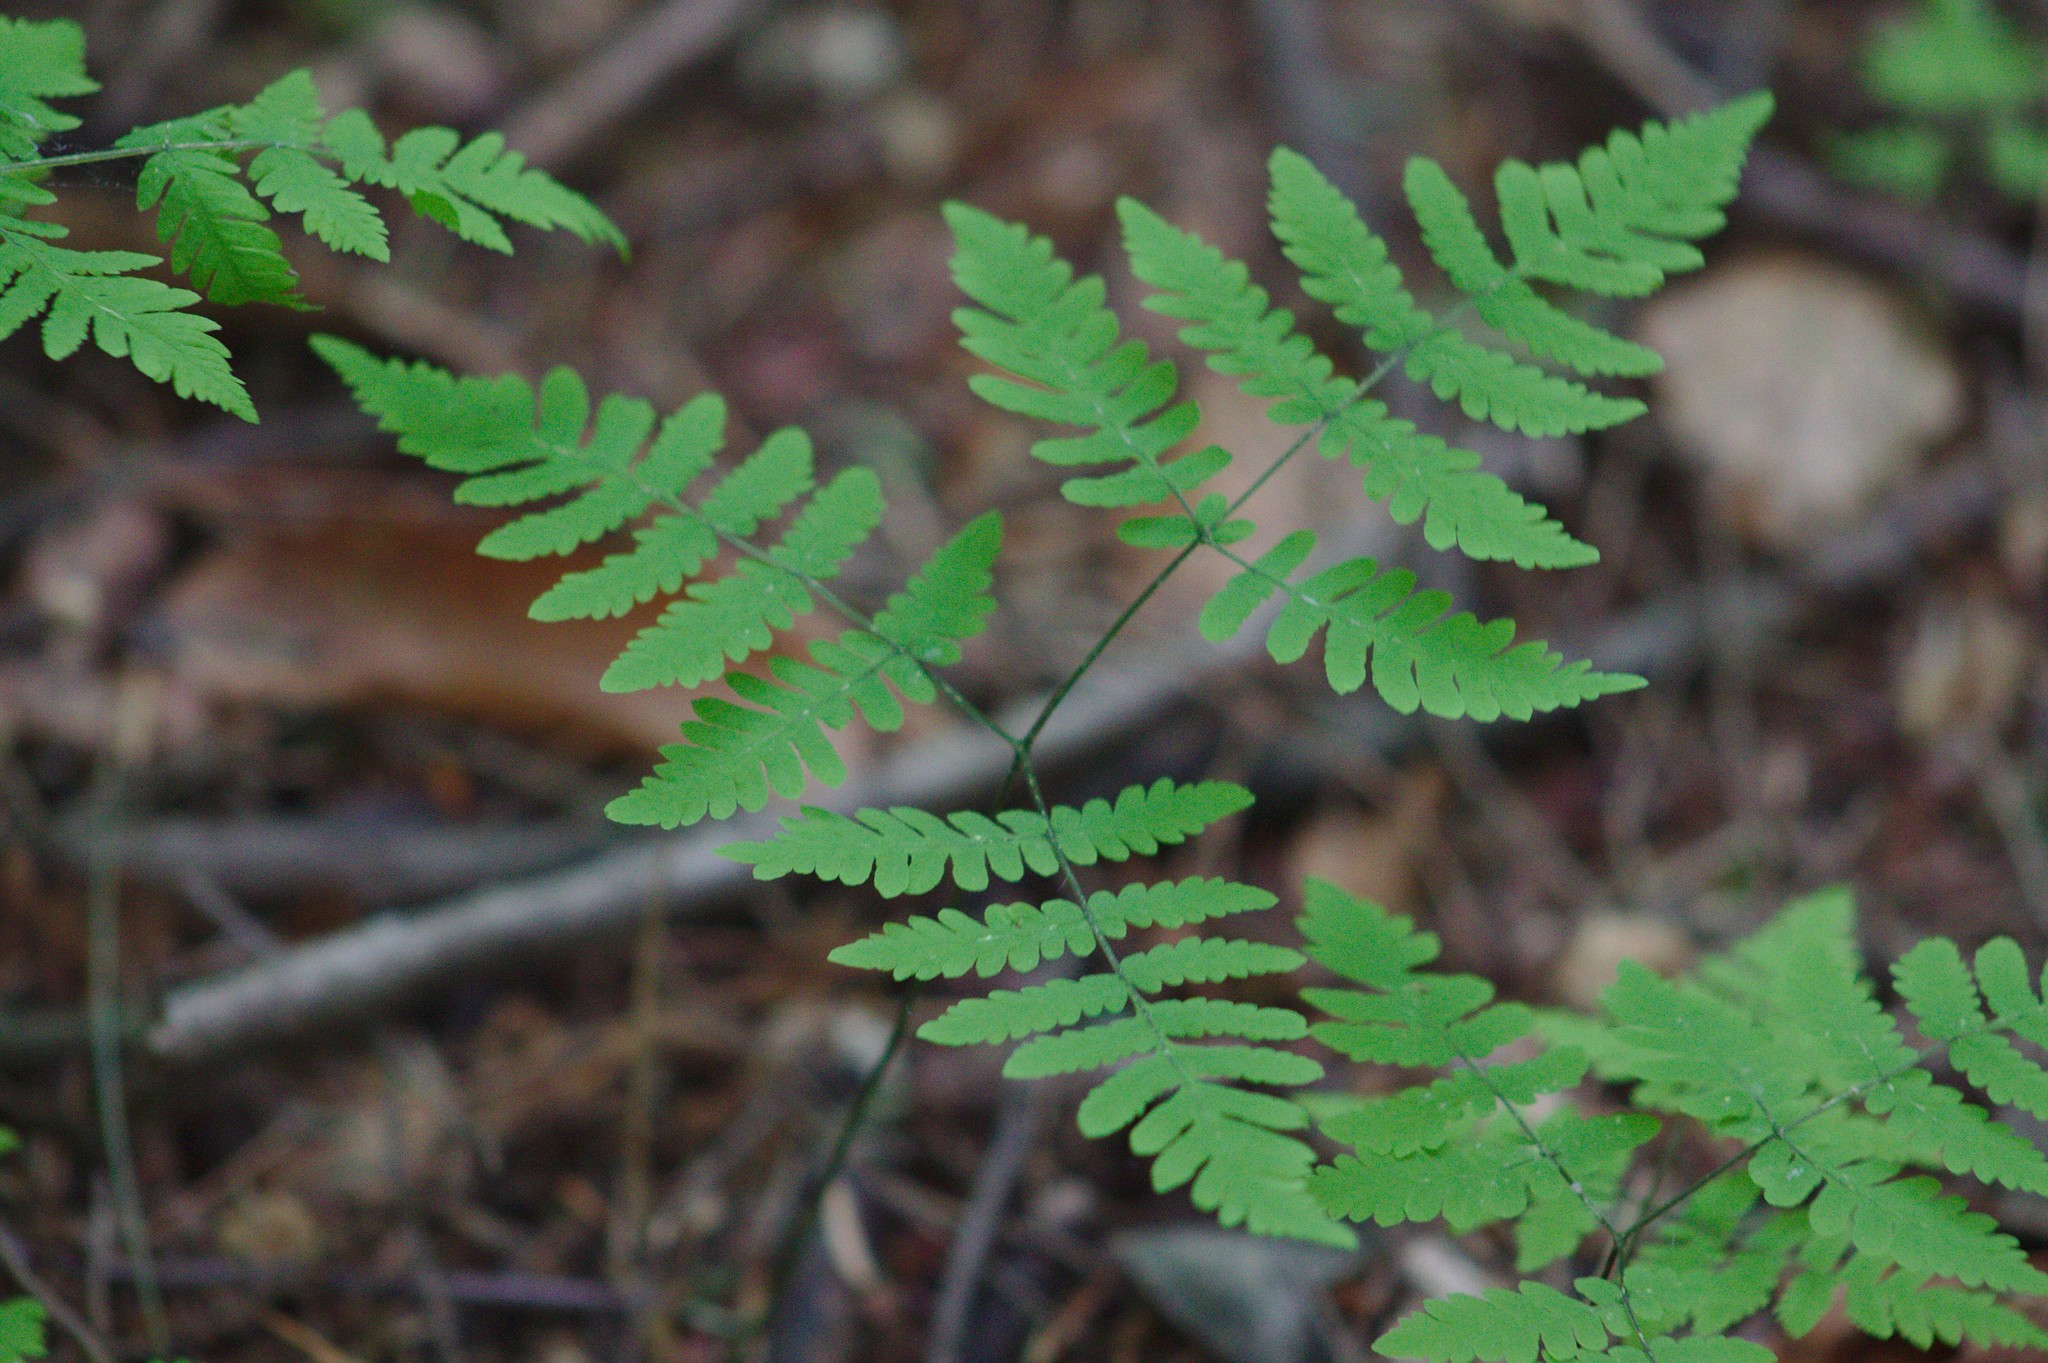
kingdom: Plantae
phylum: Tracheophyta
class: Polypodiopsida
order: Polypodiales
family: Cystopteridaceae
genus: Gymnocarpium
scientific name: Gymnocarpium dryopteris
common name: Oak fern
